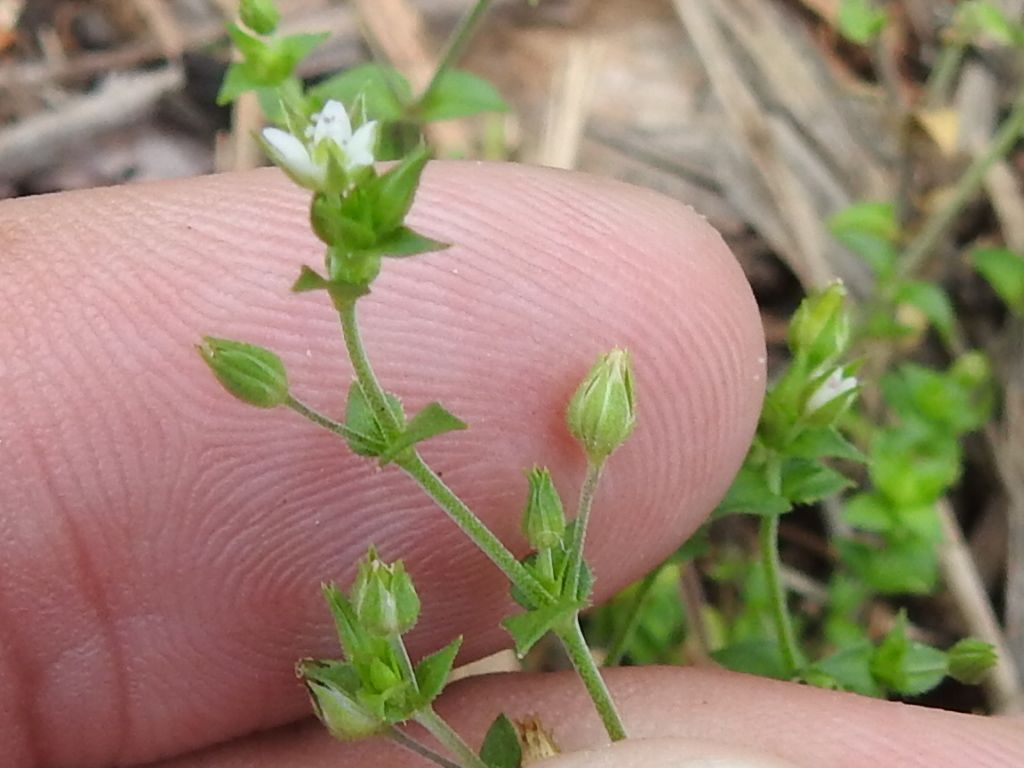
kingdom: Plantae
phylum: Tracheophyta
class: Magnoliopsida
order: Caryophyllales
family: Caryophyllaceae
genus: Arenaria
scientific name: Arenaria serpyllifolia
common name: Thyme-leaved sandwort
